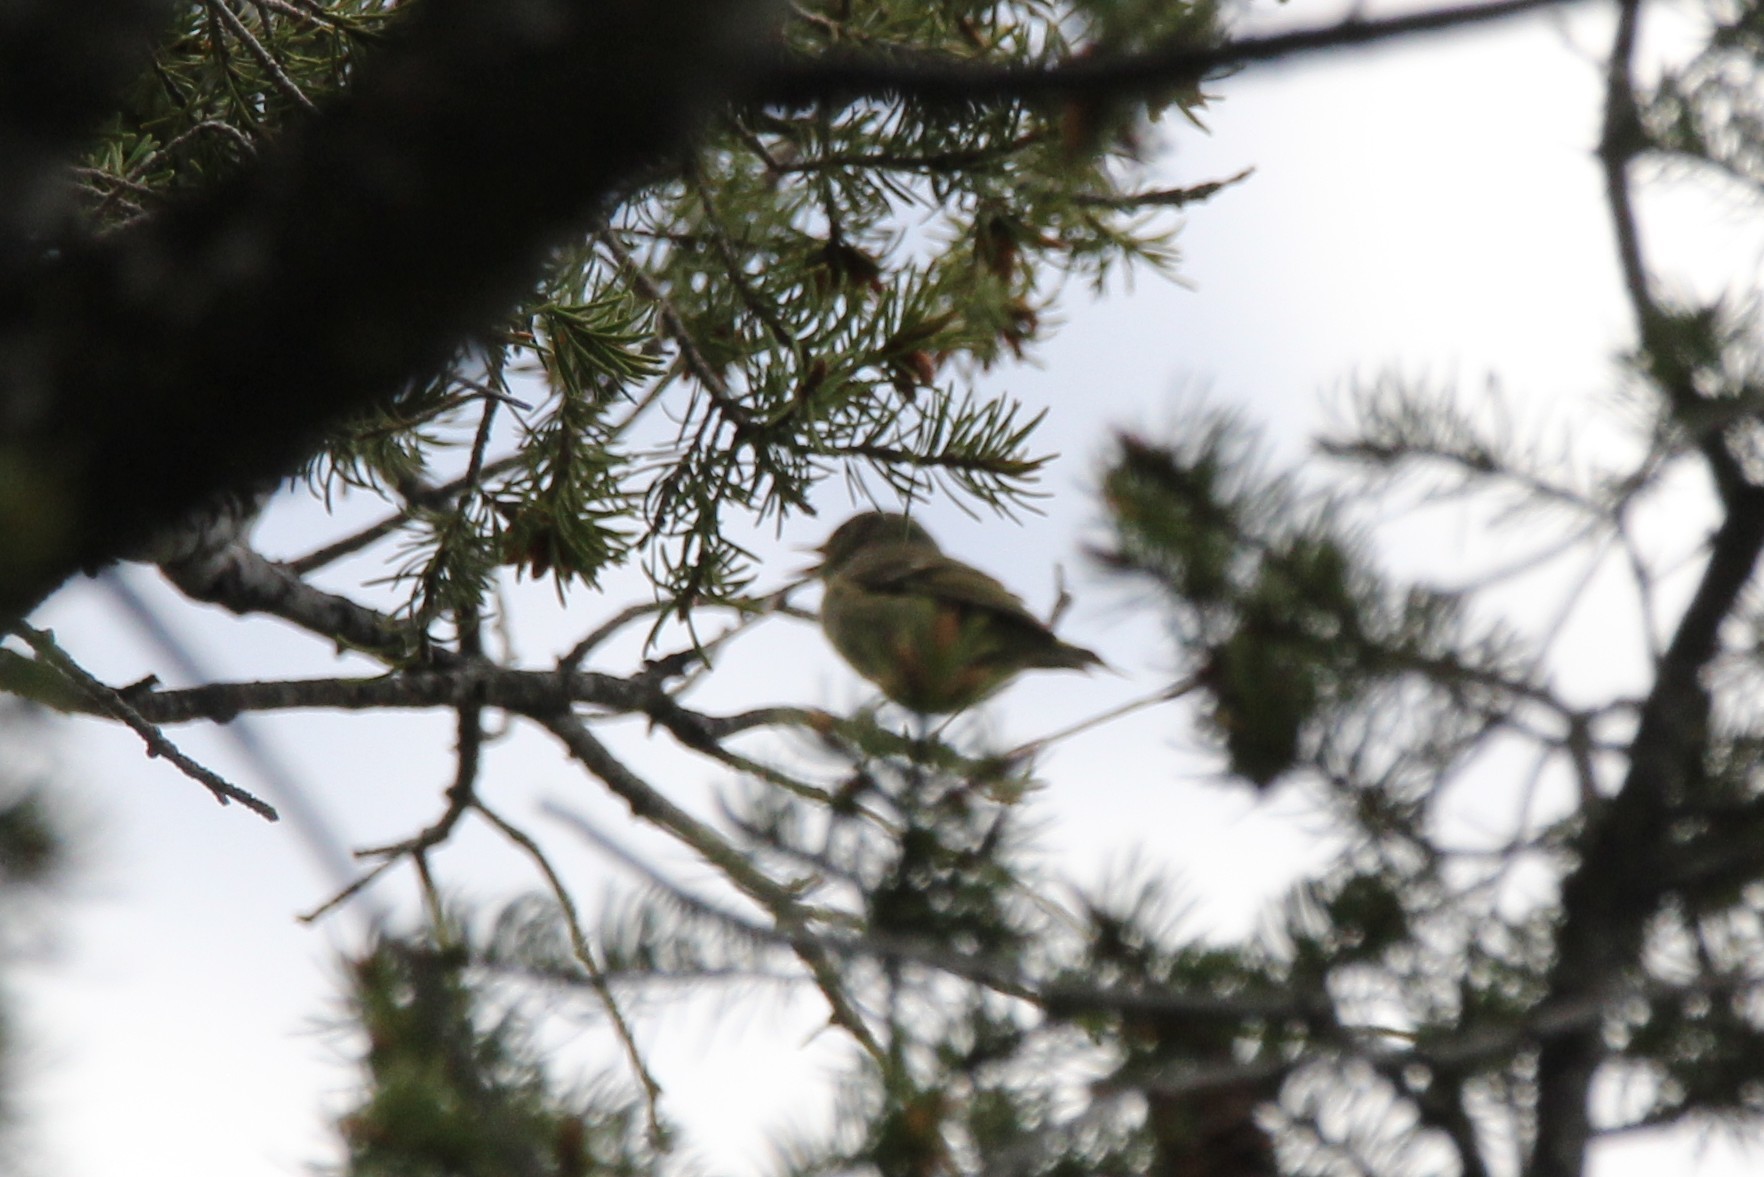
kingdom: Animalia
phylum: Chordata
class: Aves
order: Passeriformes
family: Regulidae
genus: Regulus
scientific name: Regulus calendula
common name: Ruby-crowned kinglet
